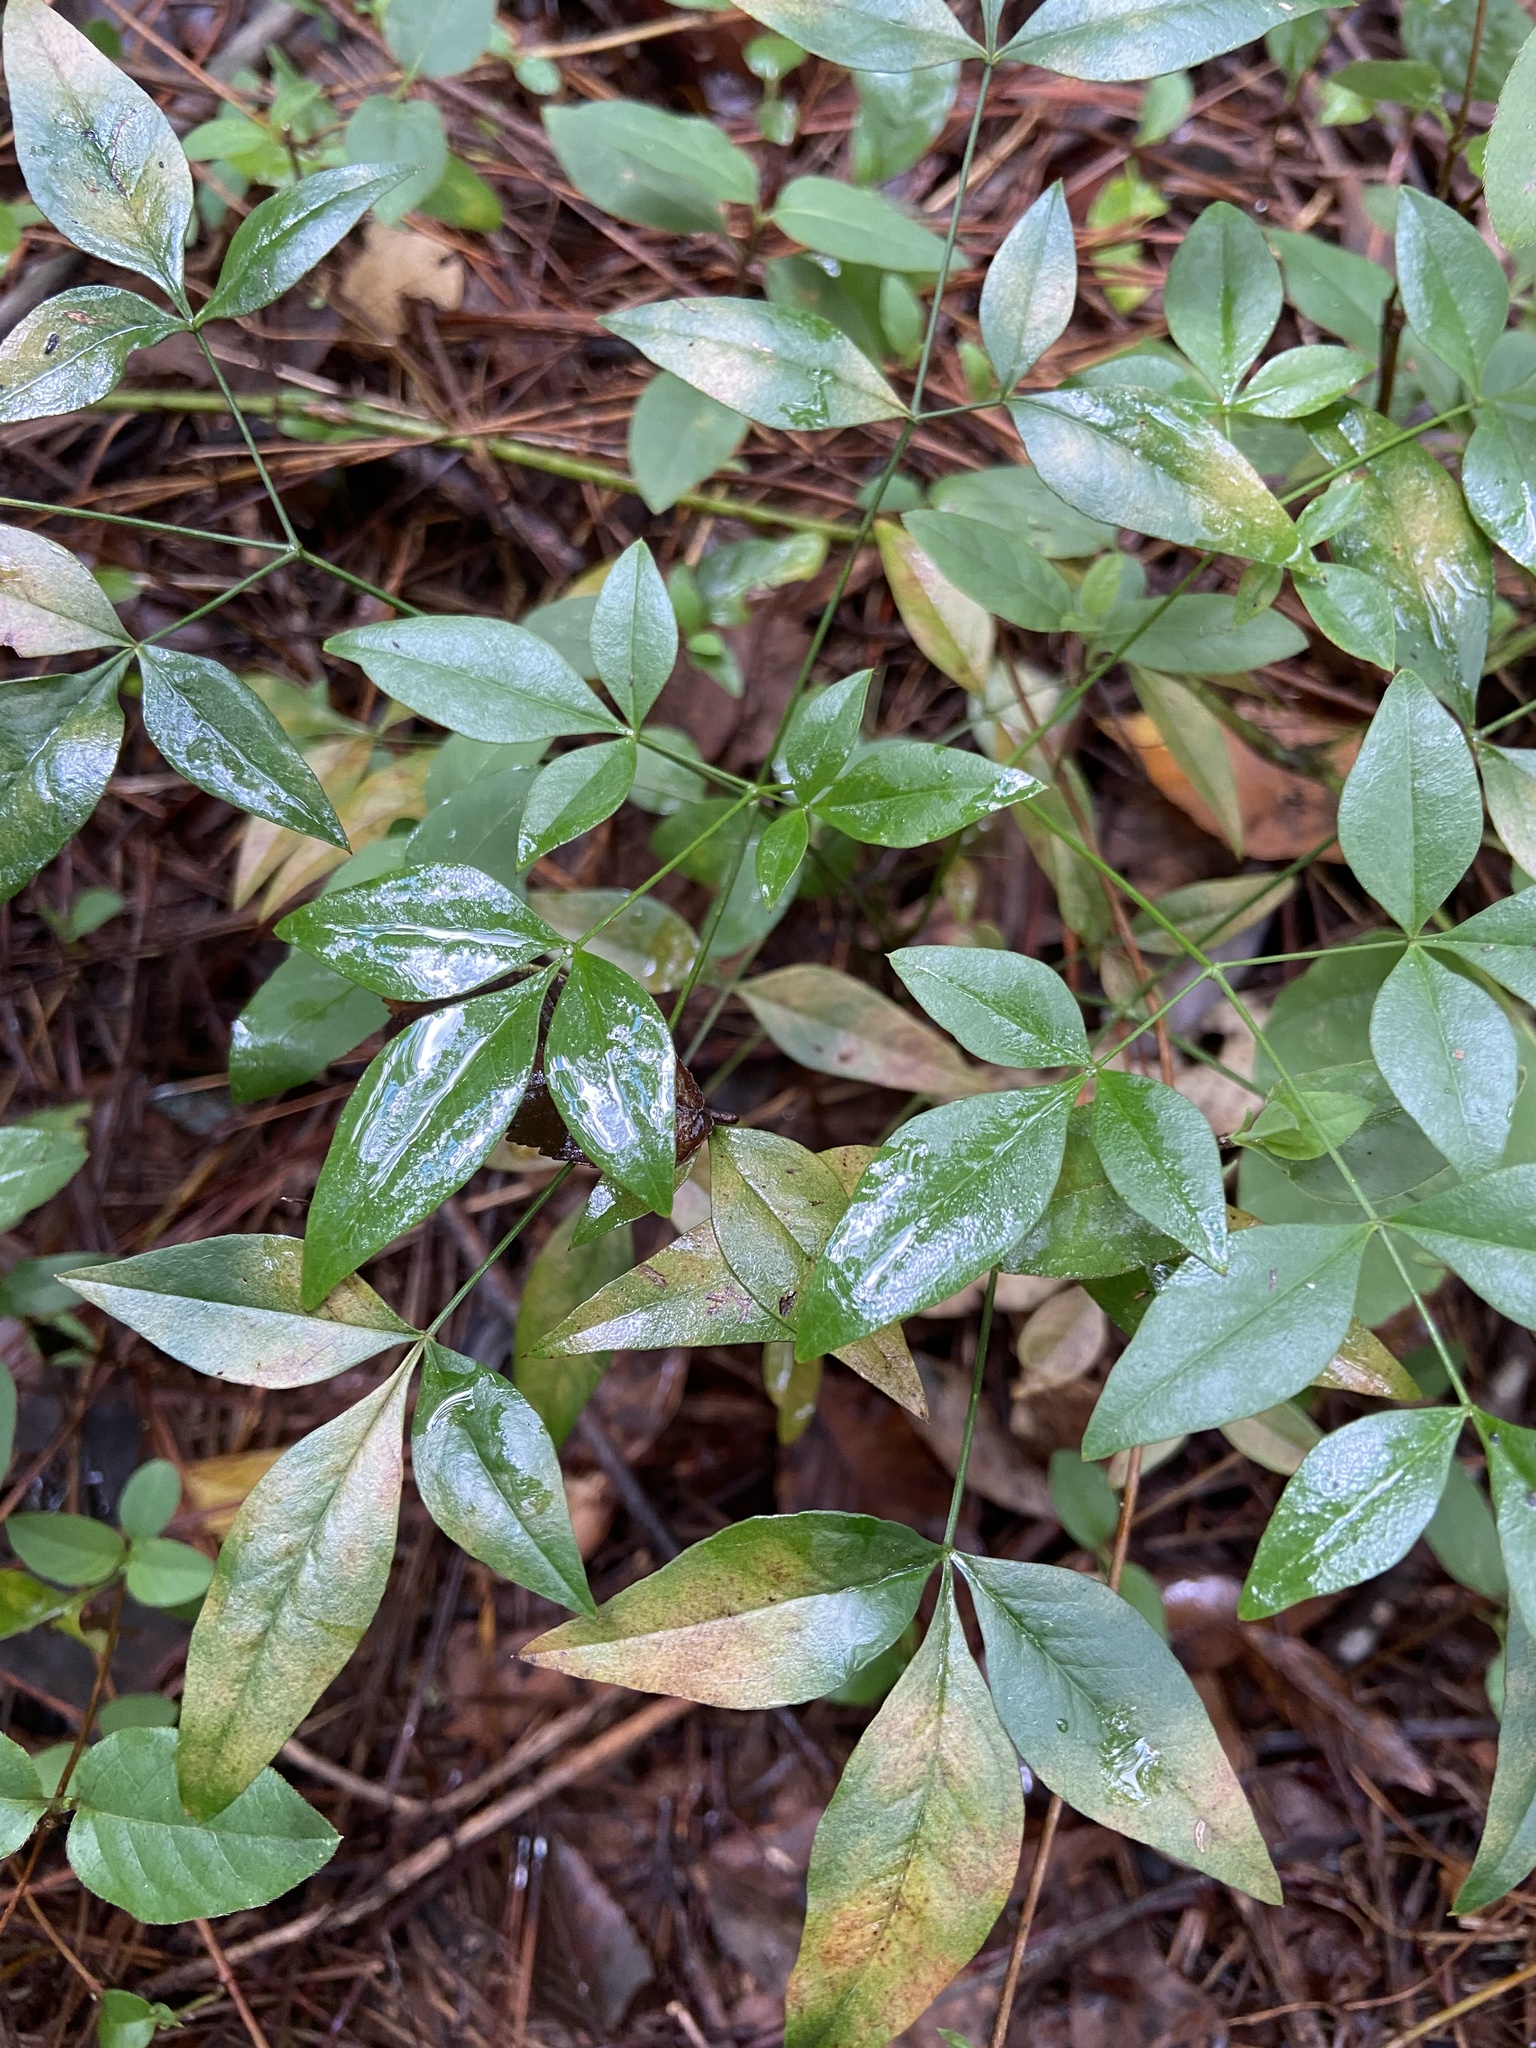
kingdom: Plantae
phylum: Tracheophyta
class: Magnoliopsida
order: Ranunculales
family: Berberidaceae
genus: Nandina
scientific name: Nandina domestica
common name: Sacred bamboo
